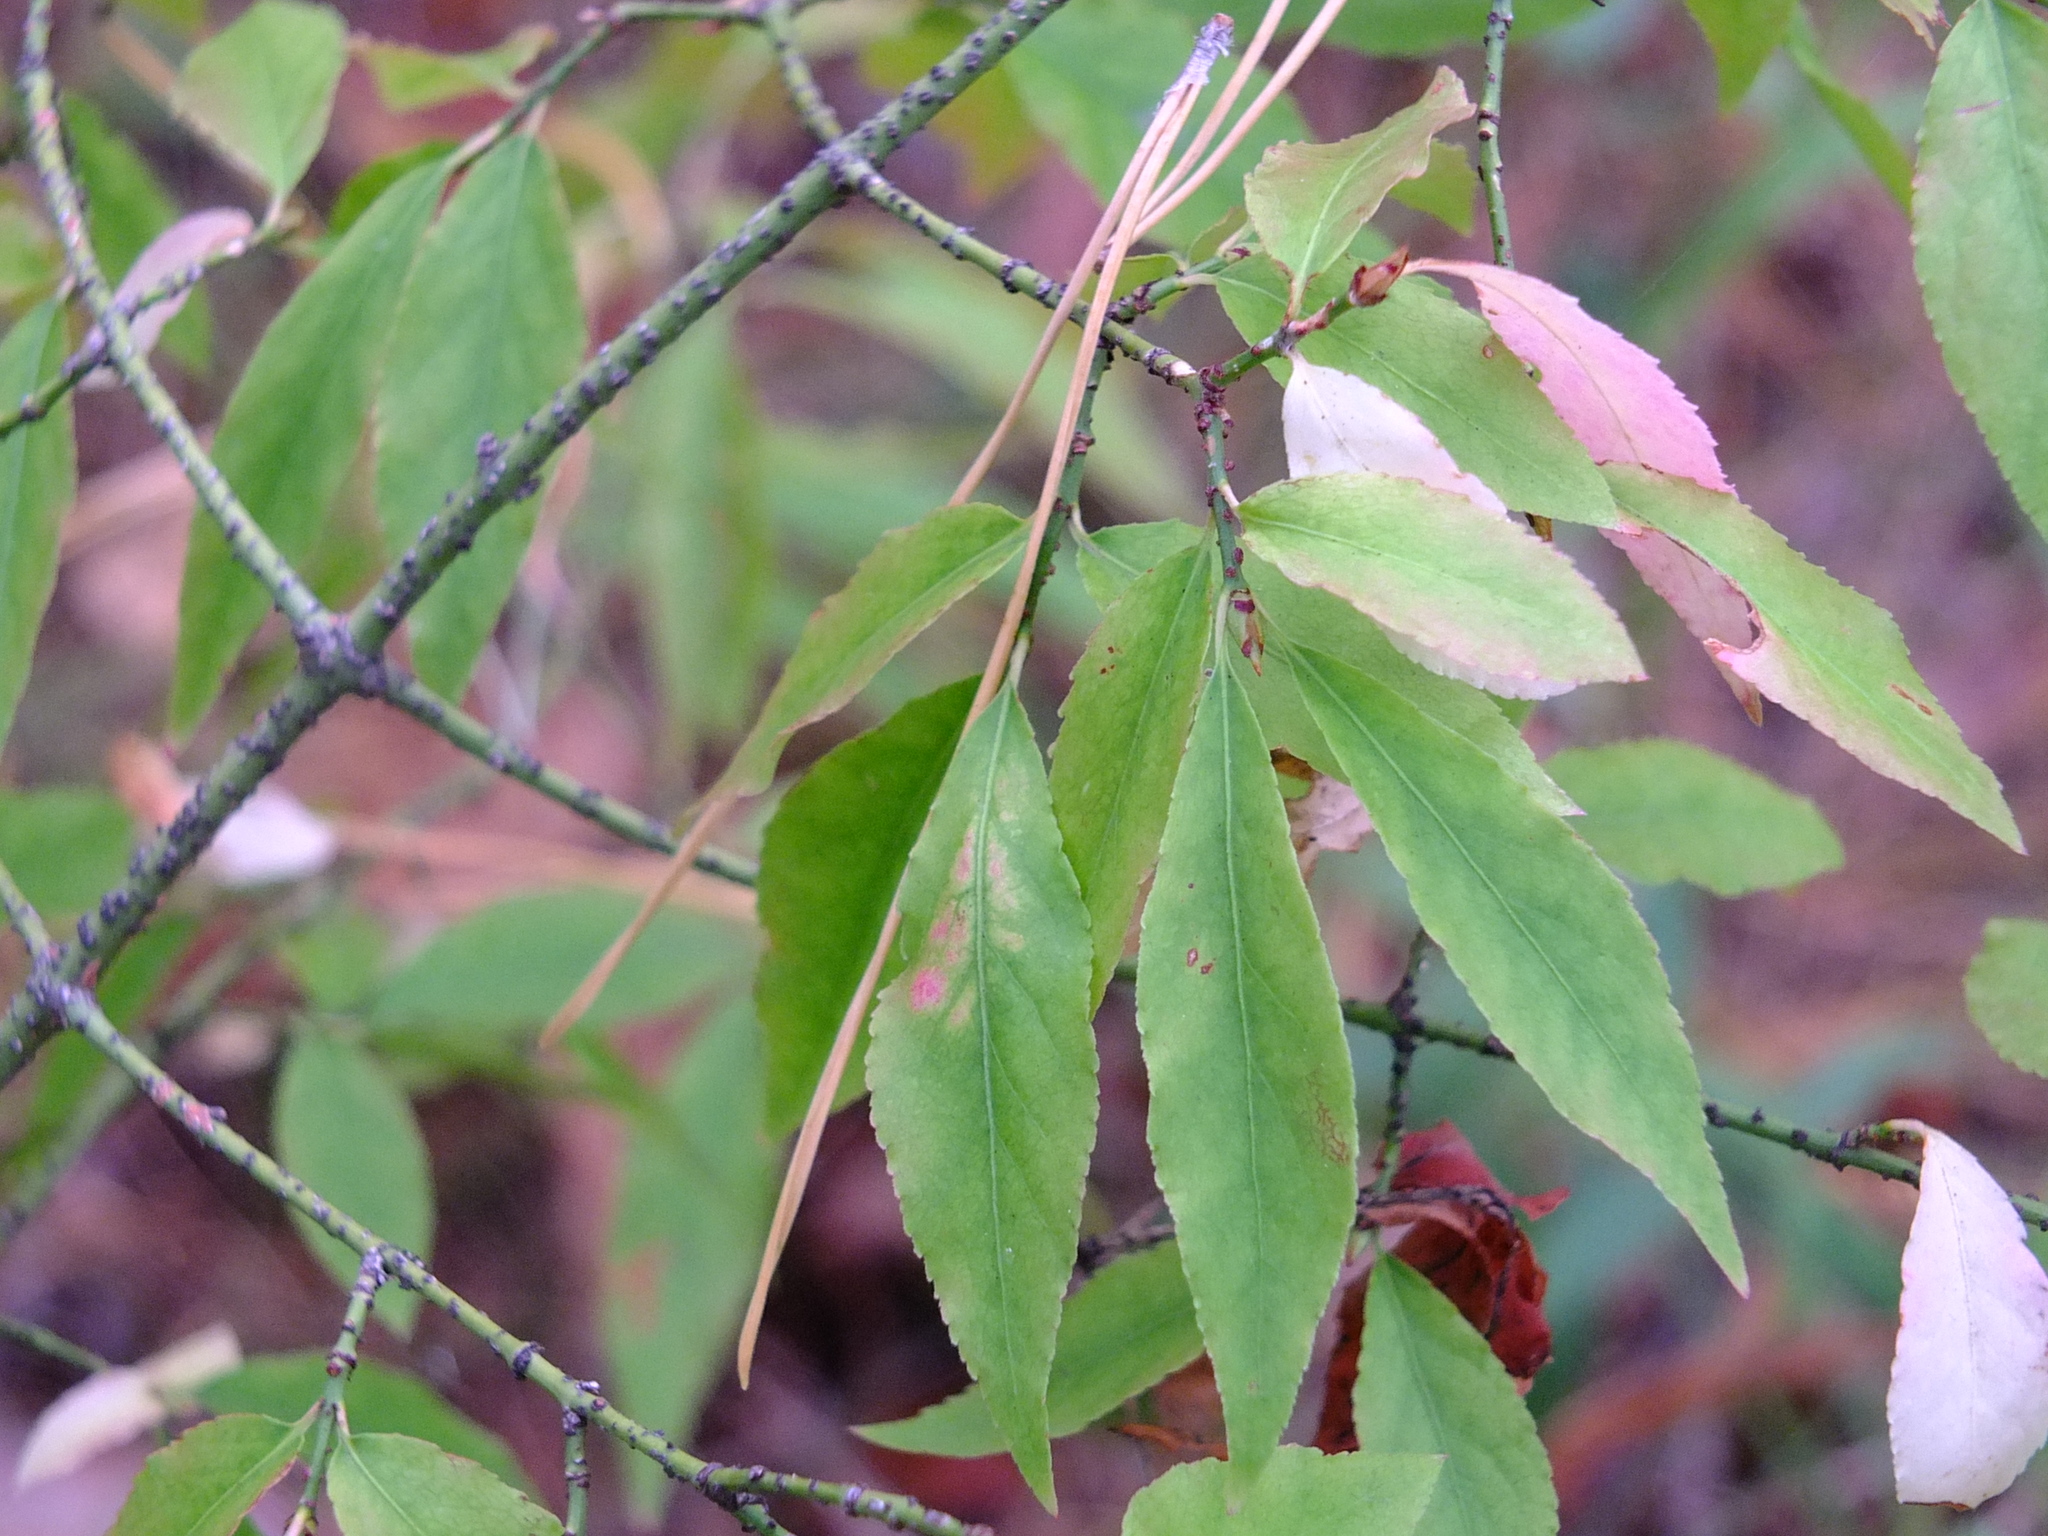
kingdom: Plantae
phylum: Tracheophyta
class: Magnoliopsida
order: Celastrales
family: Celastraceae
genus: Euonymus
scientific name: Euonymus verrucosus
